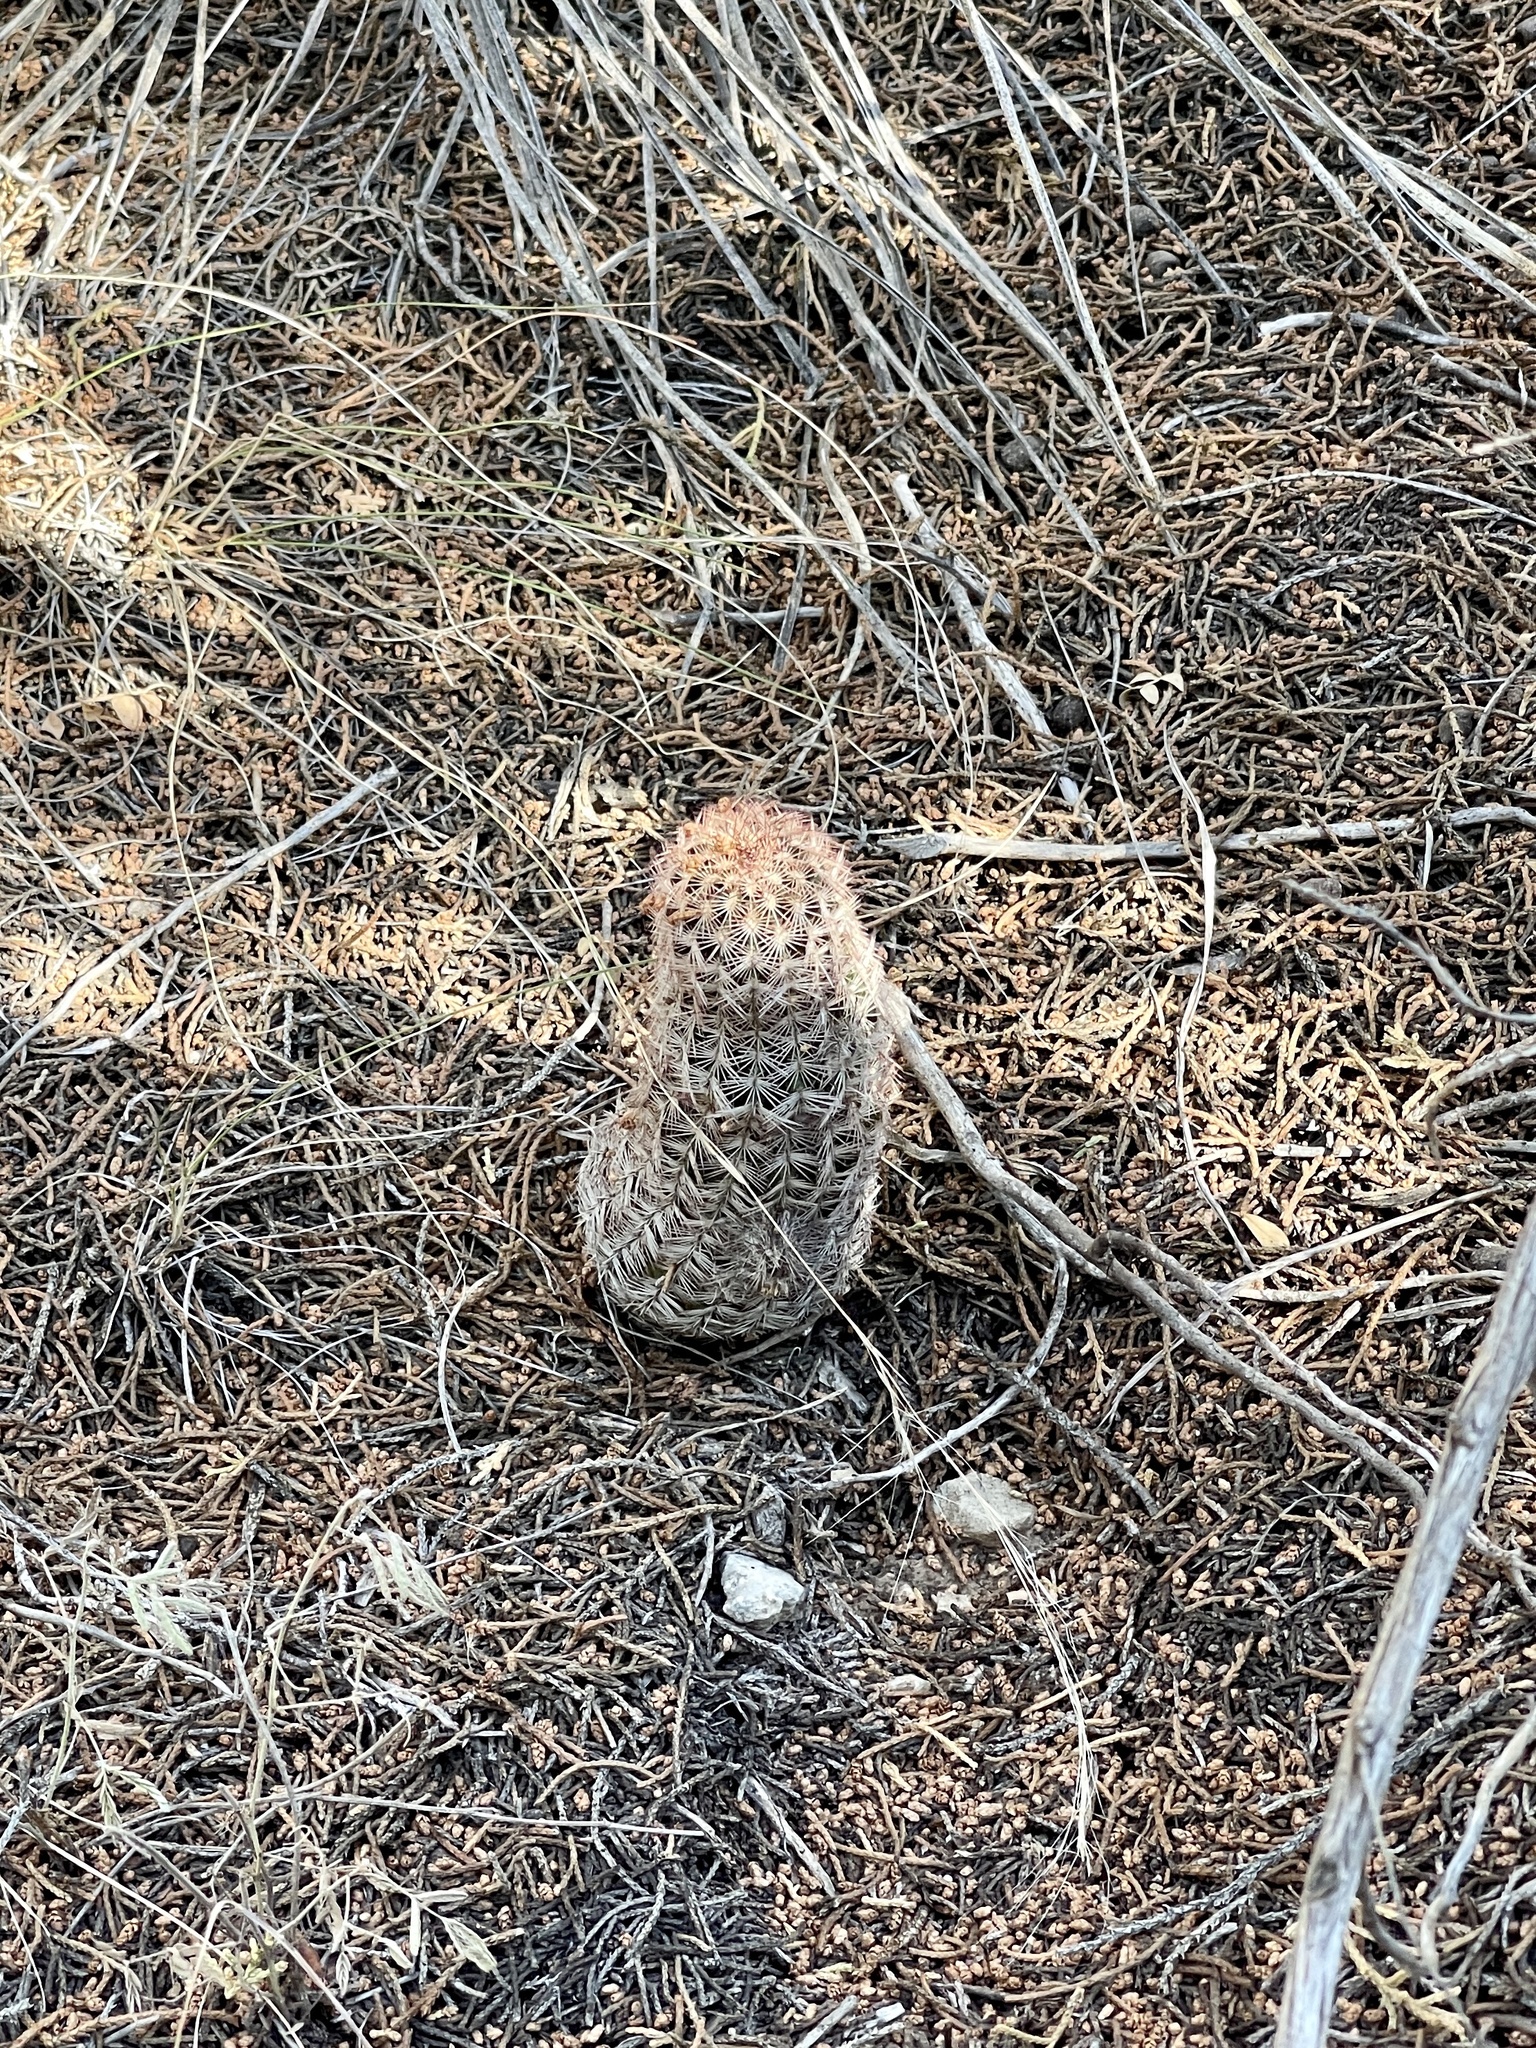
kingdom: Plantae
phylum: Tracheophyta
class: Magnoliopsida
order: Caryophyllales
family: Cactaceae
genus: Echinocereus
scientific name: Echinocereus reichenbachii
